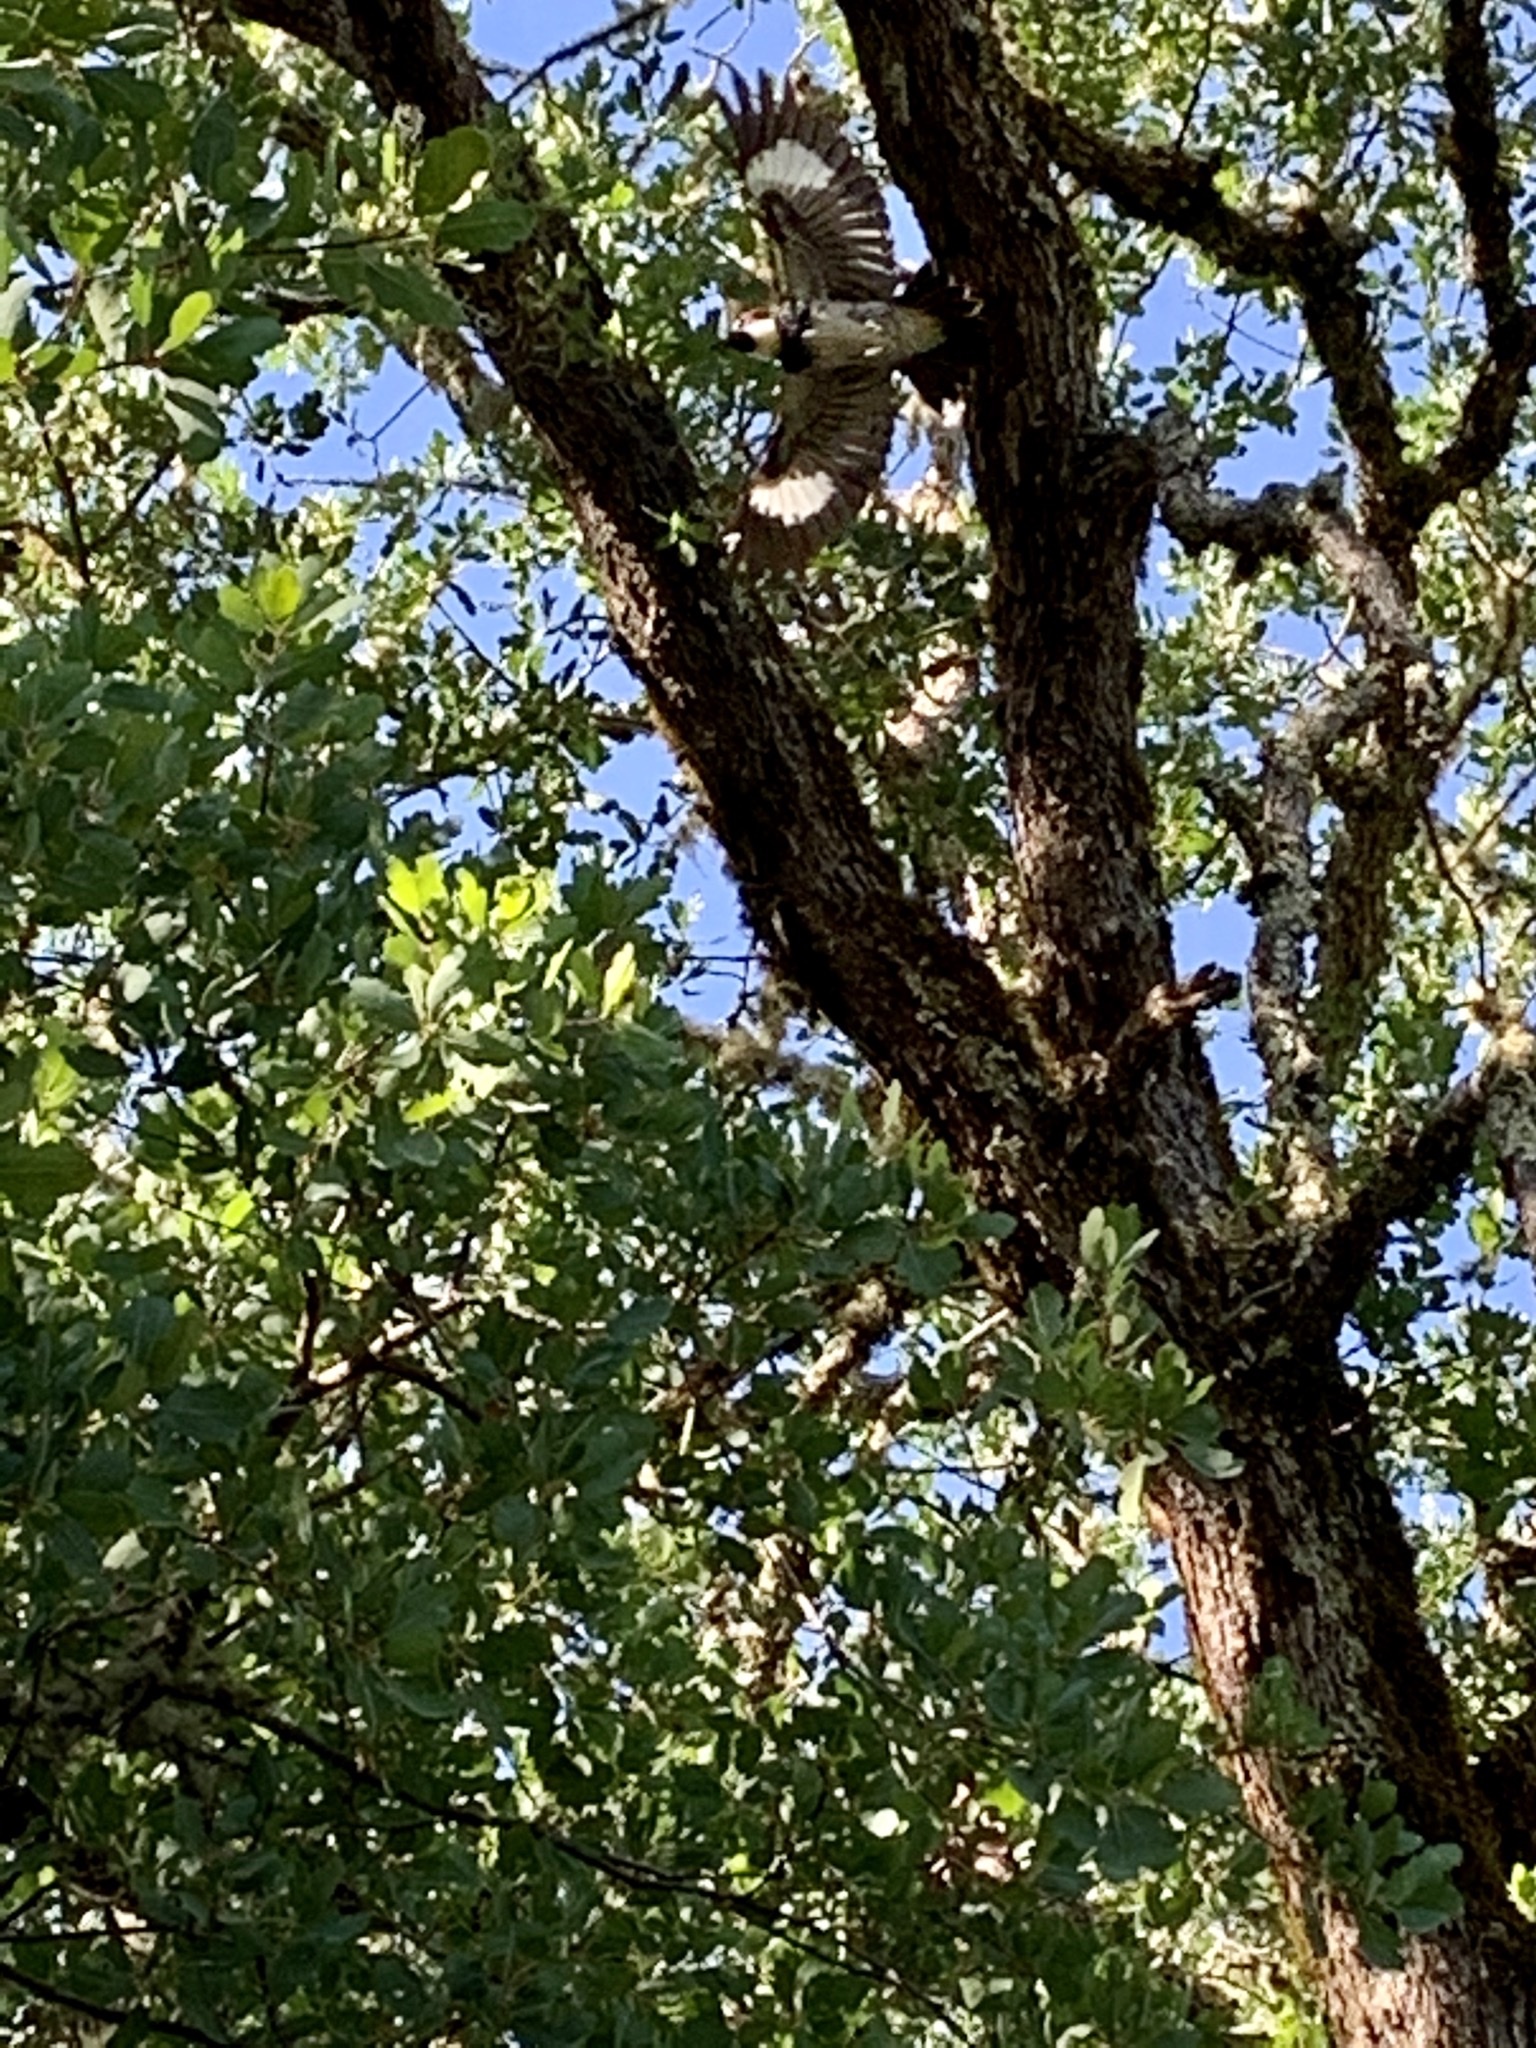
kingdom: Animalia
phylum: Chordata
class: Aves
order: Piciformes
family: Picidae
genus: Melanerpes
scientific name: Melanerpes formicivorus
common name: Acorn woodpecker
